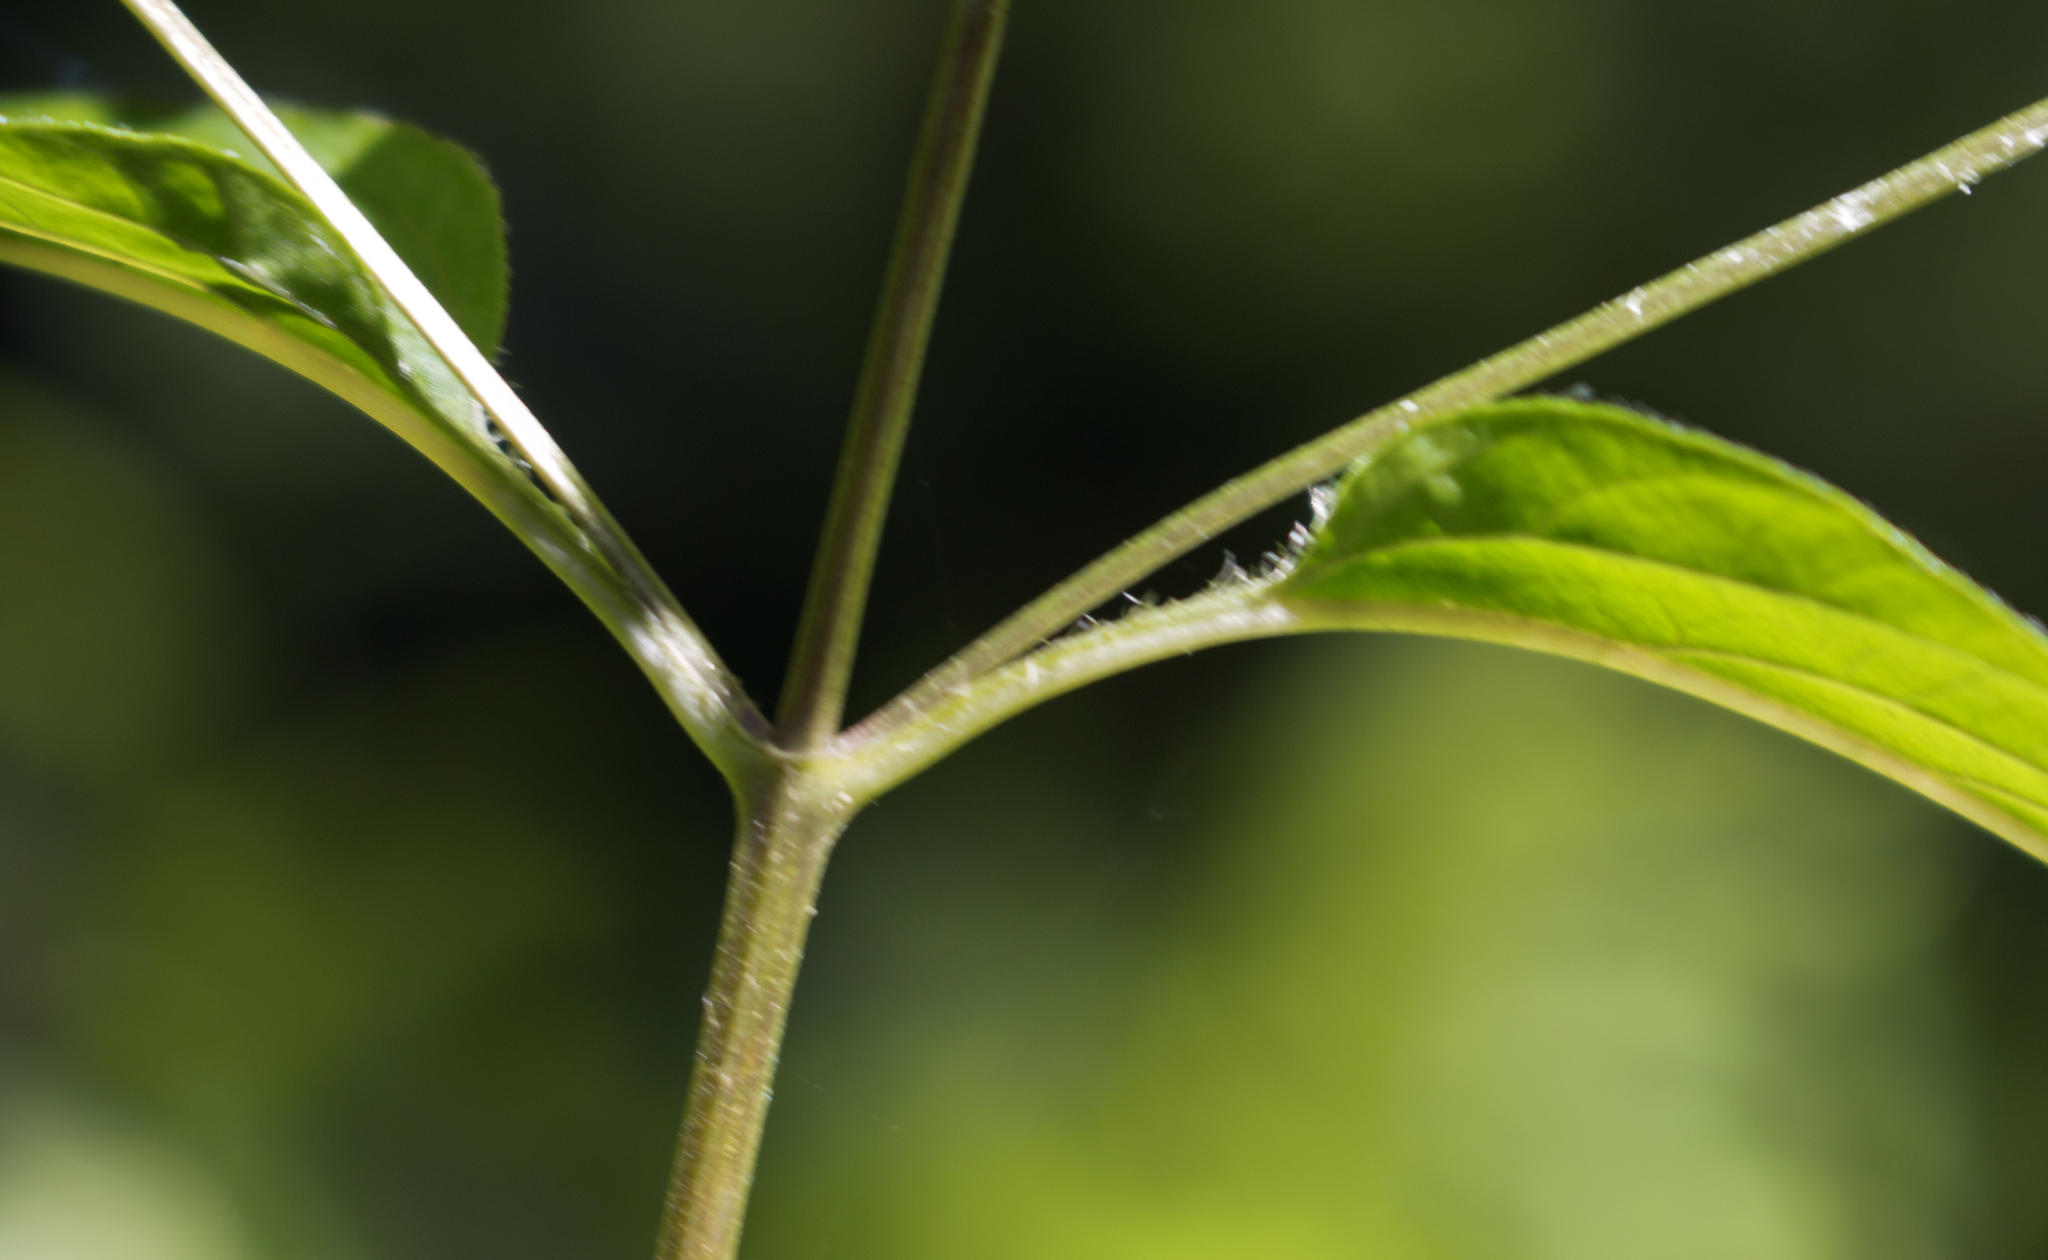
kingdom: Plantae
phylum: Tracheophyta
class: Magnoliopsida
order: Ericales
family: Primulaceae
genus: Lysimachia
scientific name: Lysimachia ciliata
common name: Fringed loosestrife
